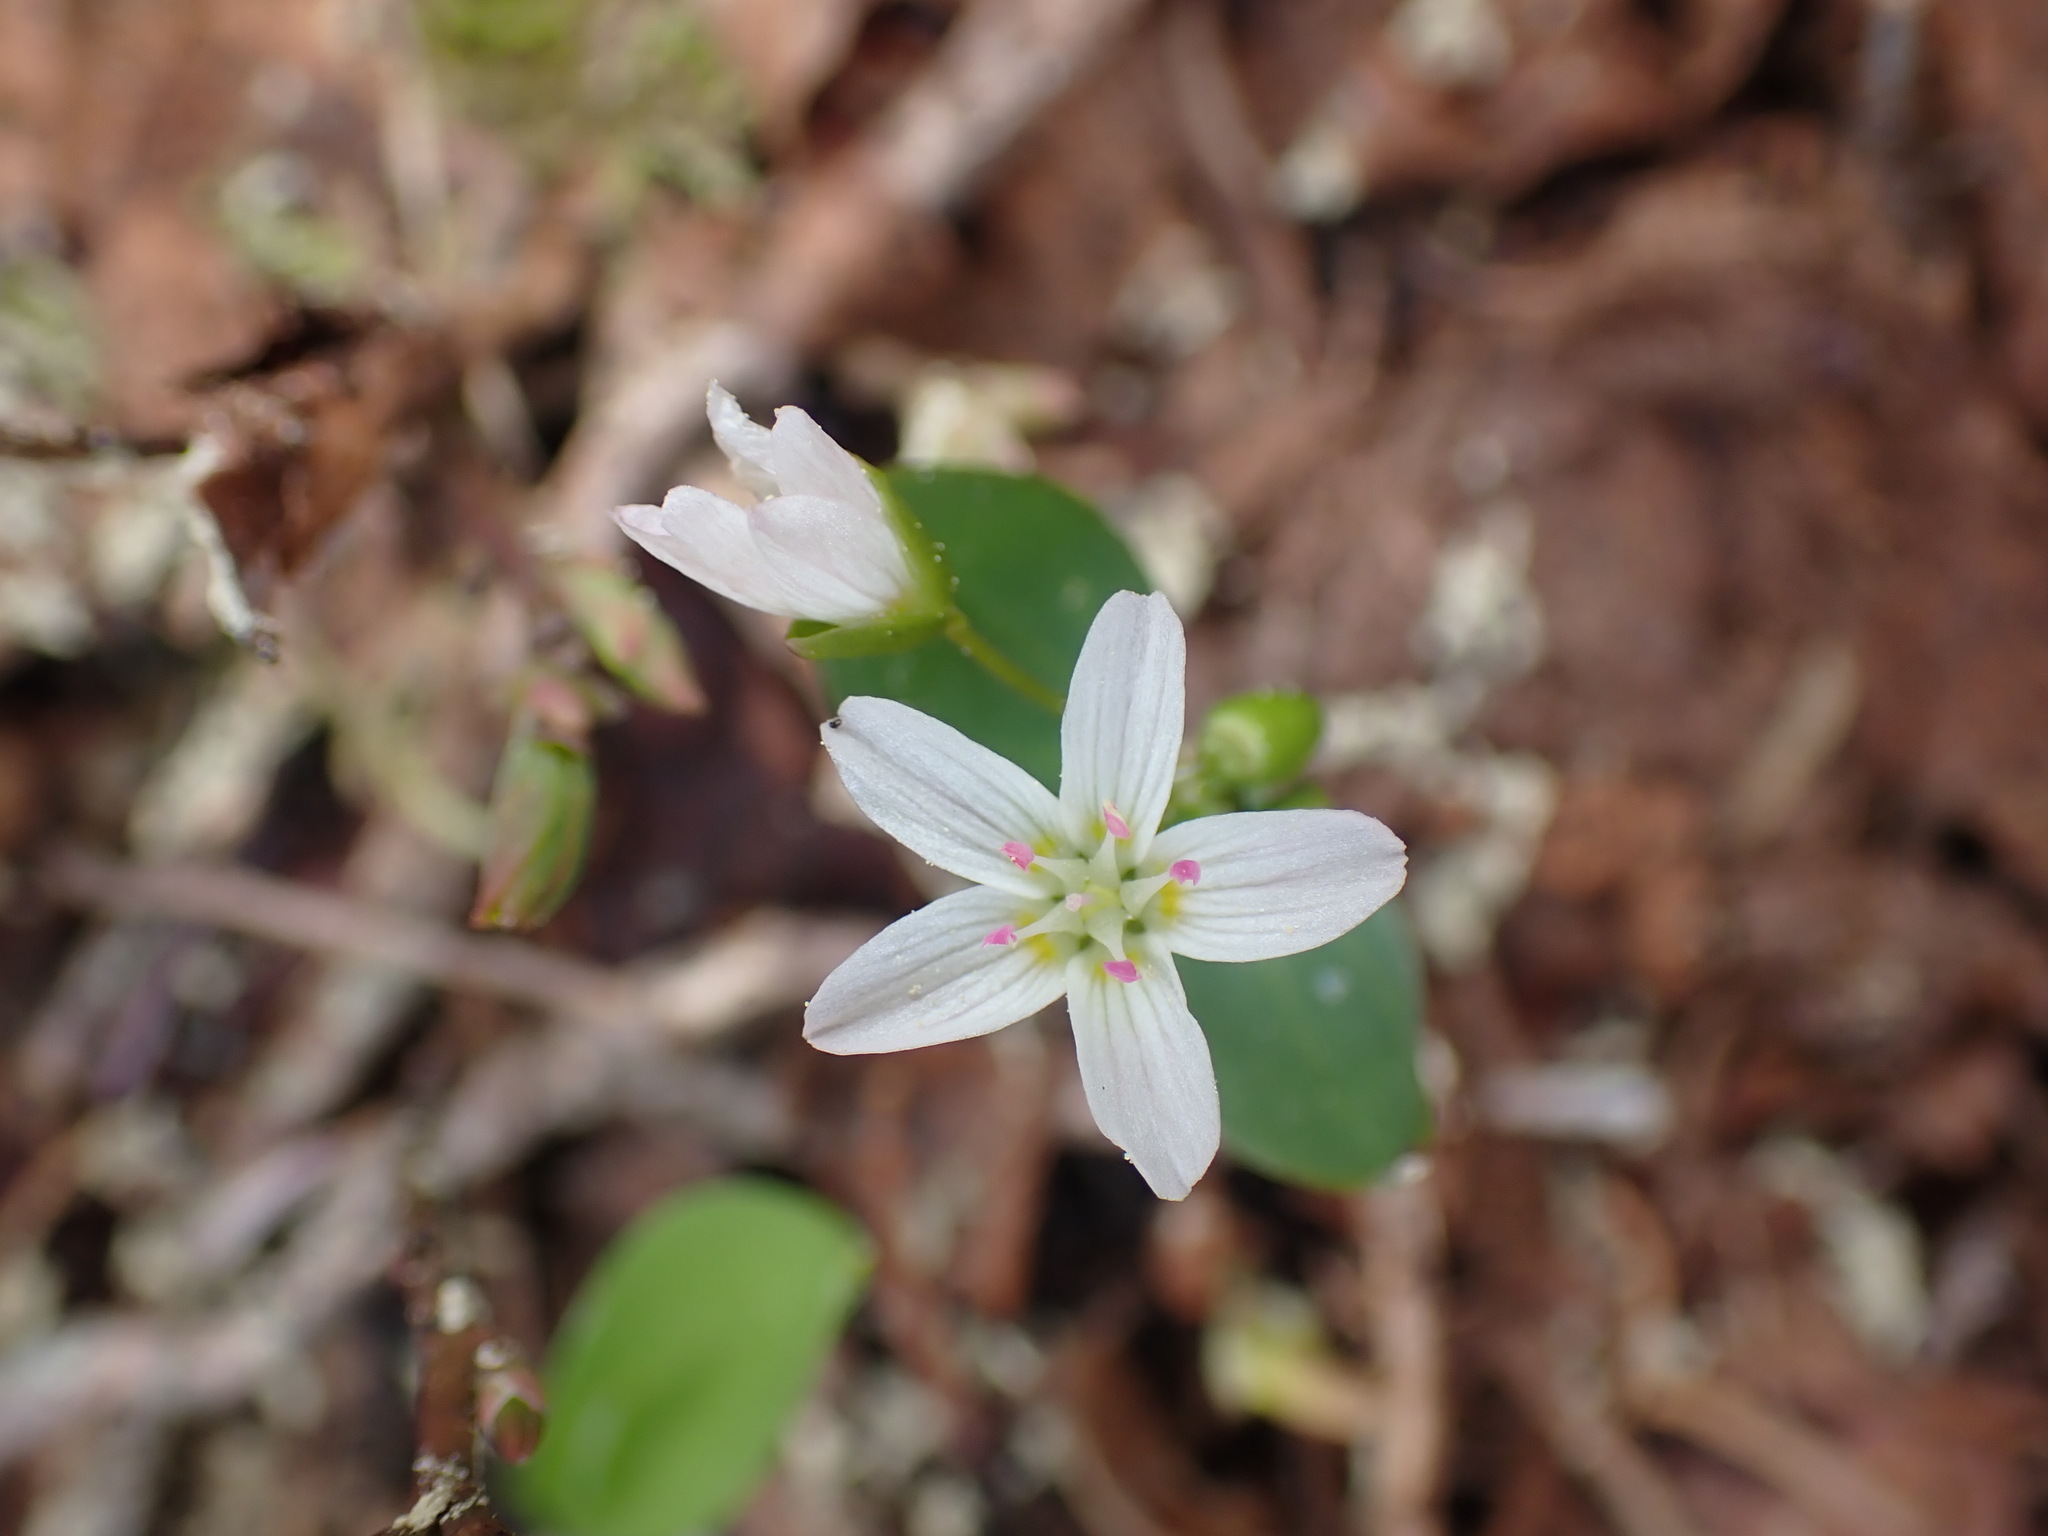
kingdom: Plantae
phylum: Tracheophyta
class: Magnoliopsida
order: Caryophyllales
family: Montiaceae
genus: Claytonia
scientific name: Claytonia lanceolata
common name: Western spring-beauty
